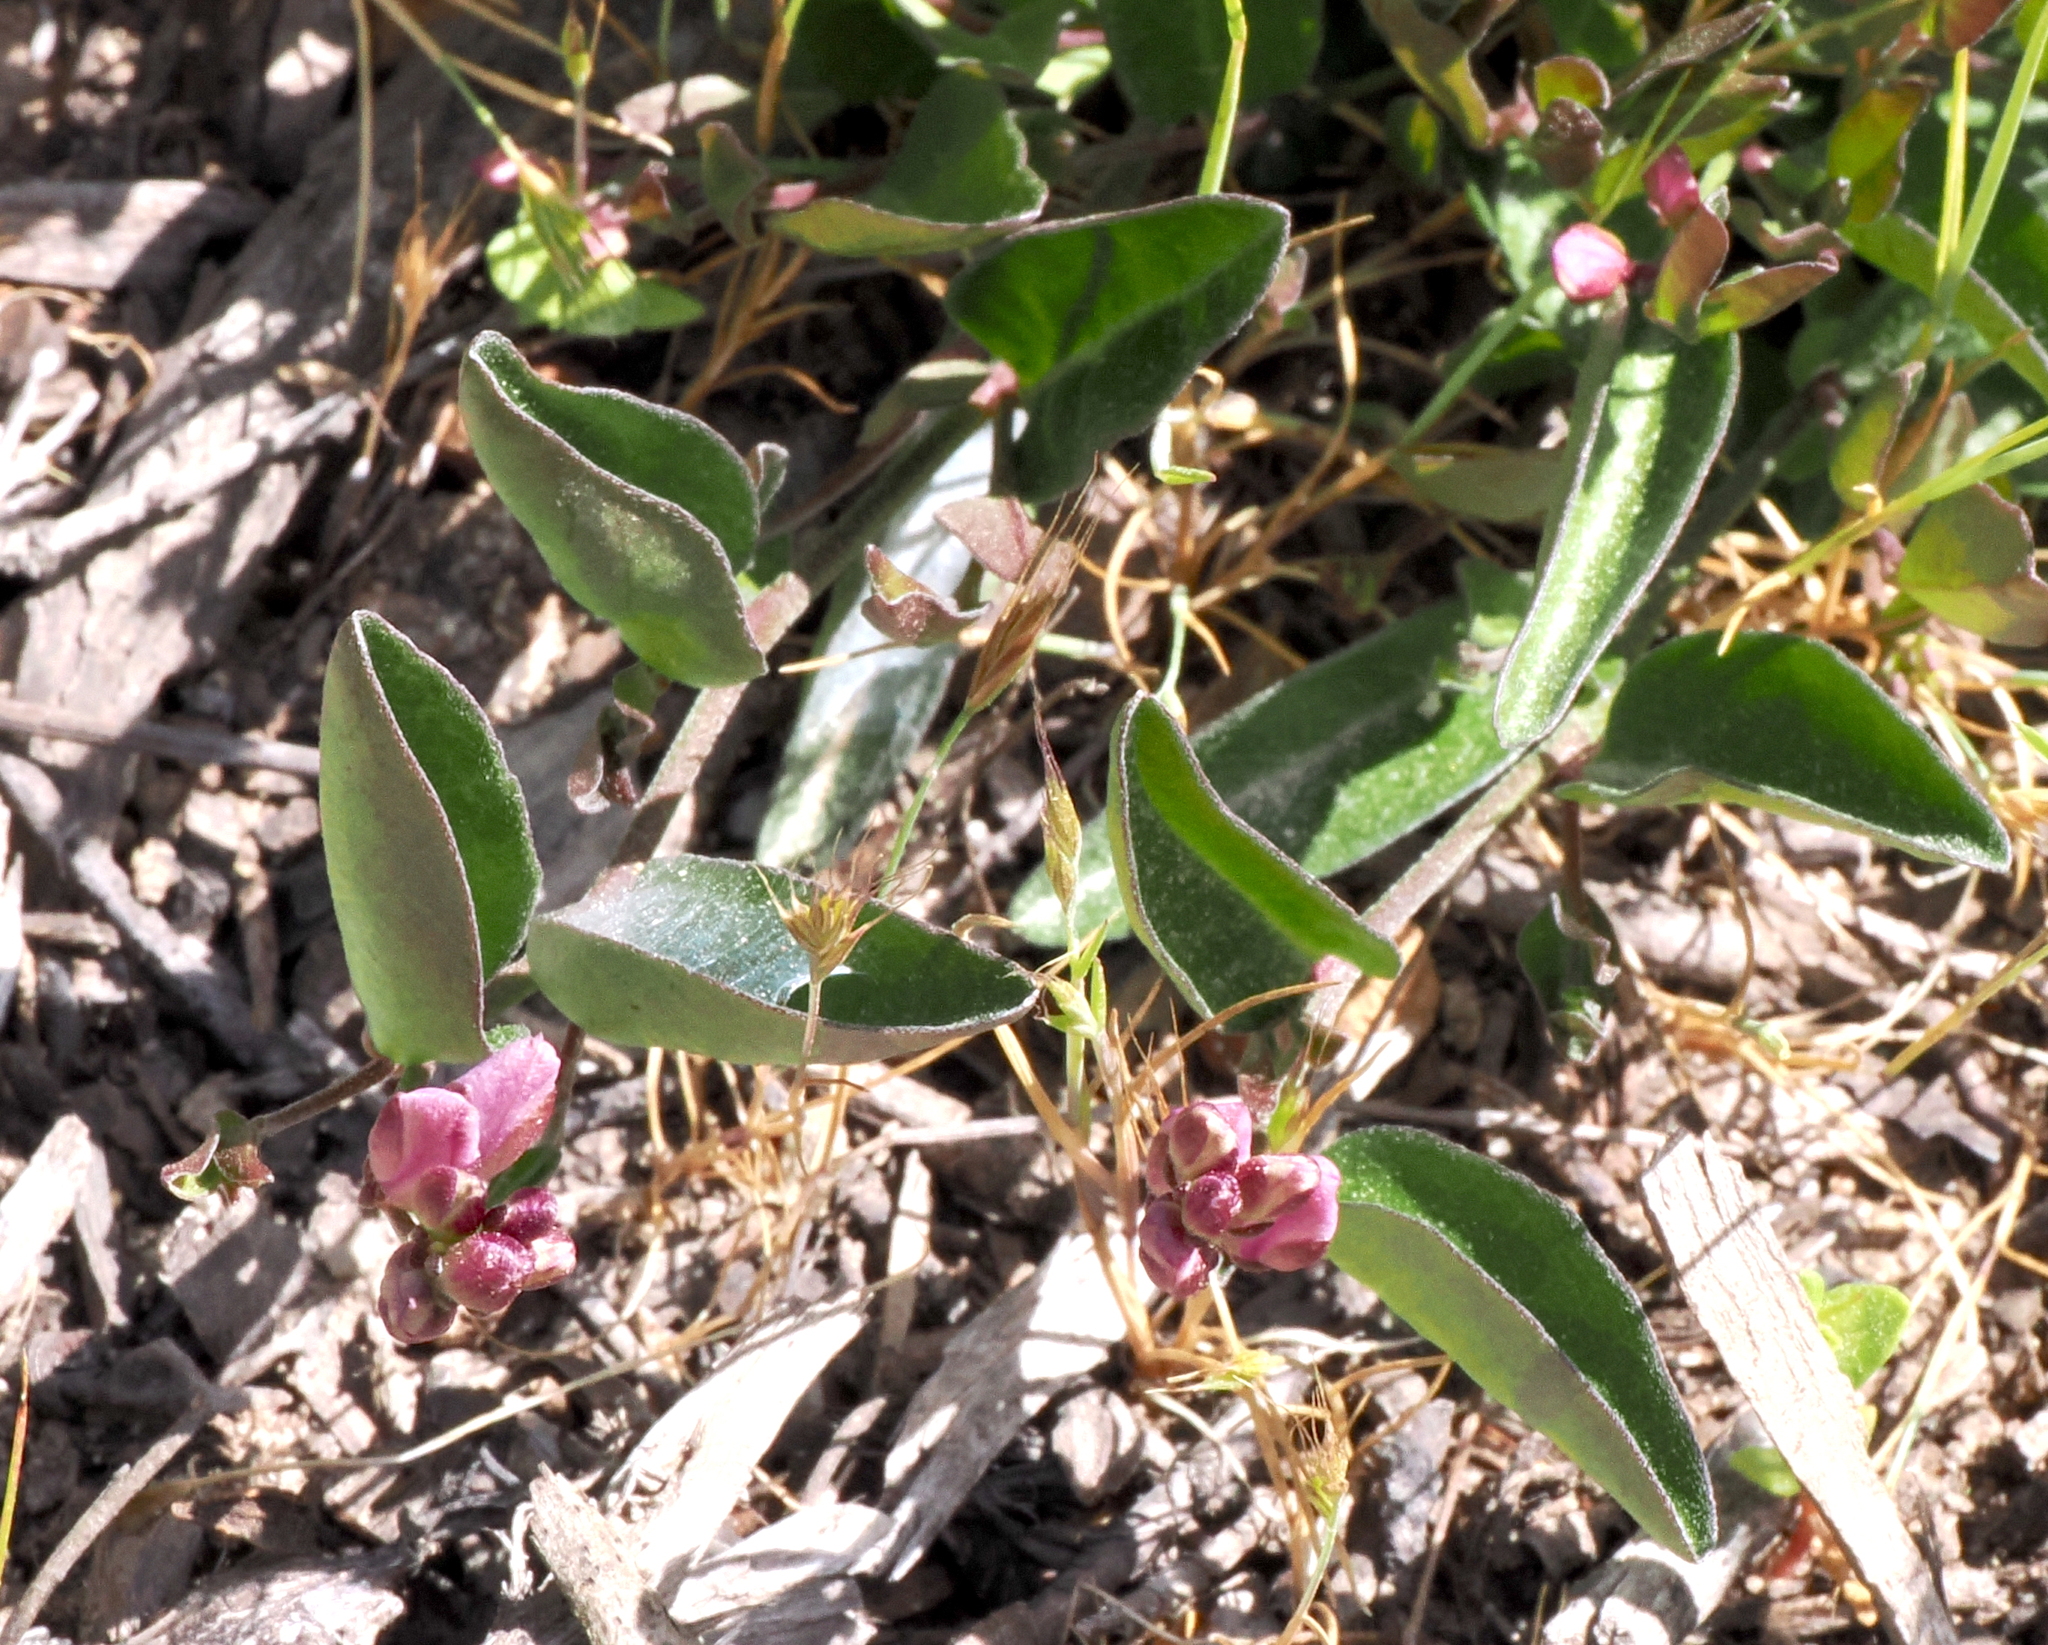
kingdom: Plantae
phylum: Tracheophyta
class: Magnoliopsida
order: Fabales
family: Polygalaceae
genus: Rhinotropis
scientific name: Rhinotropis californica
